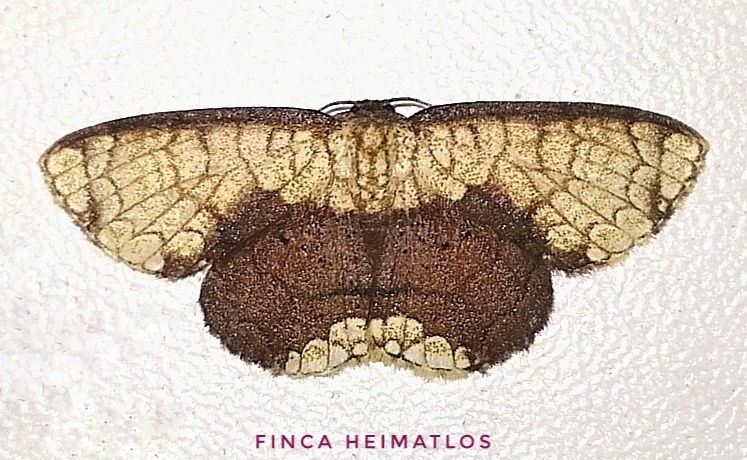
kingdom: Animalia
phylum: Arthropoda
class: Insecta
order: Lepidoptera
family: Geometridae
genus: Semaeopus
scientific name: Semaeopus semibrunnea
